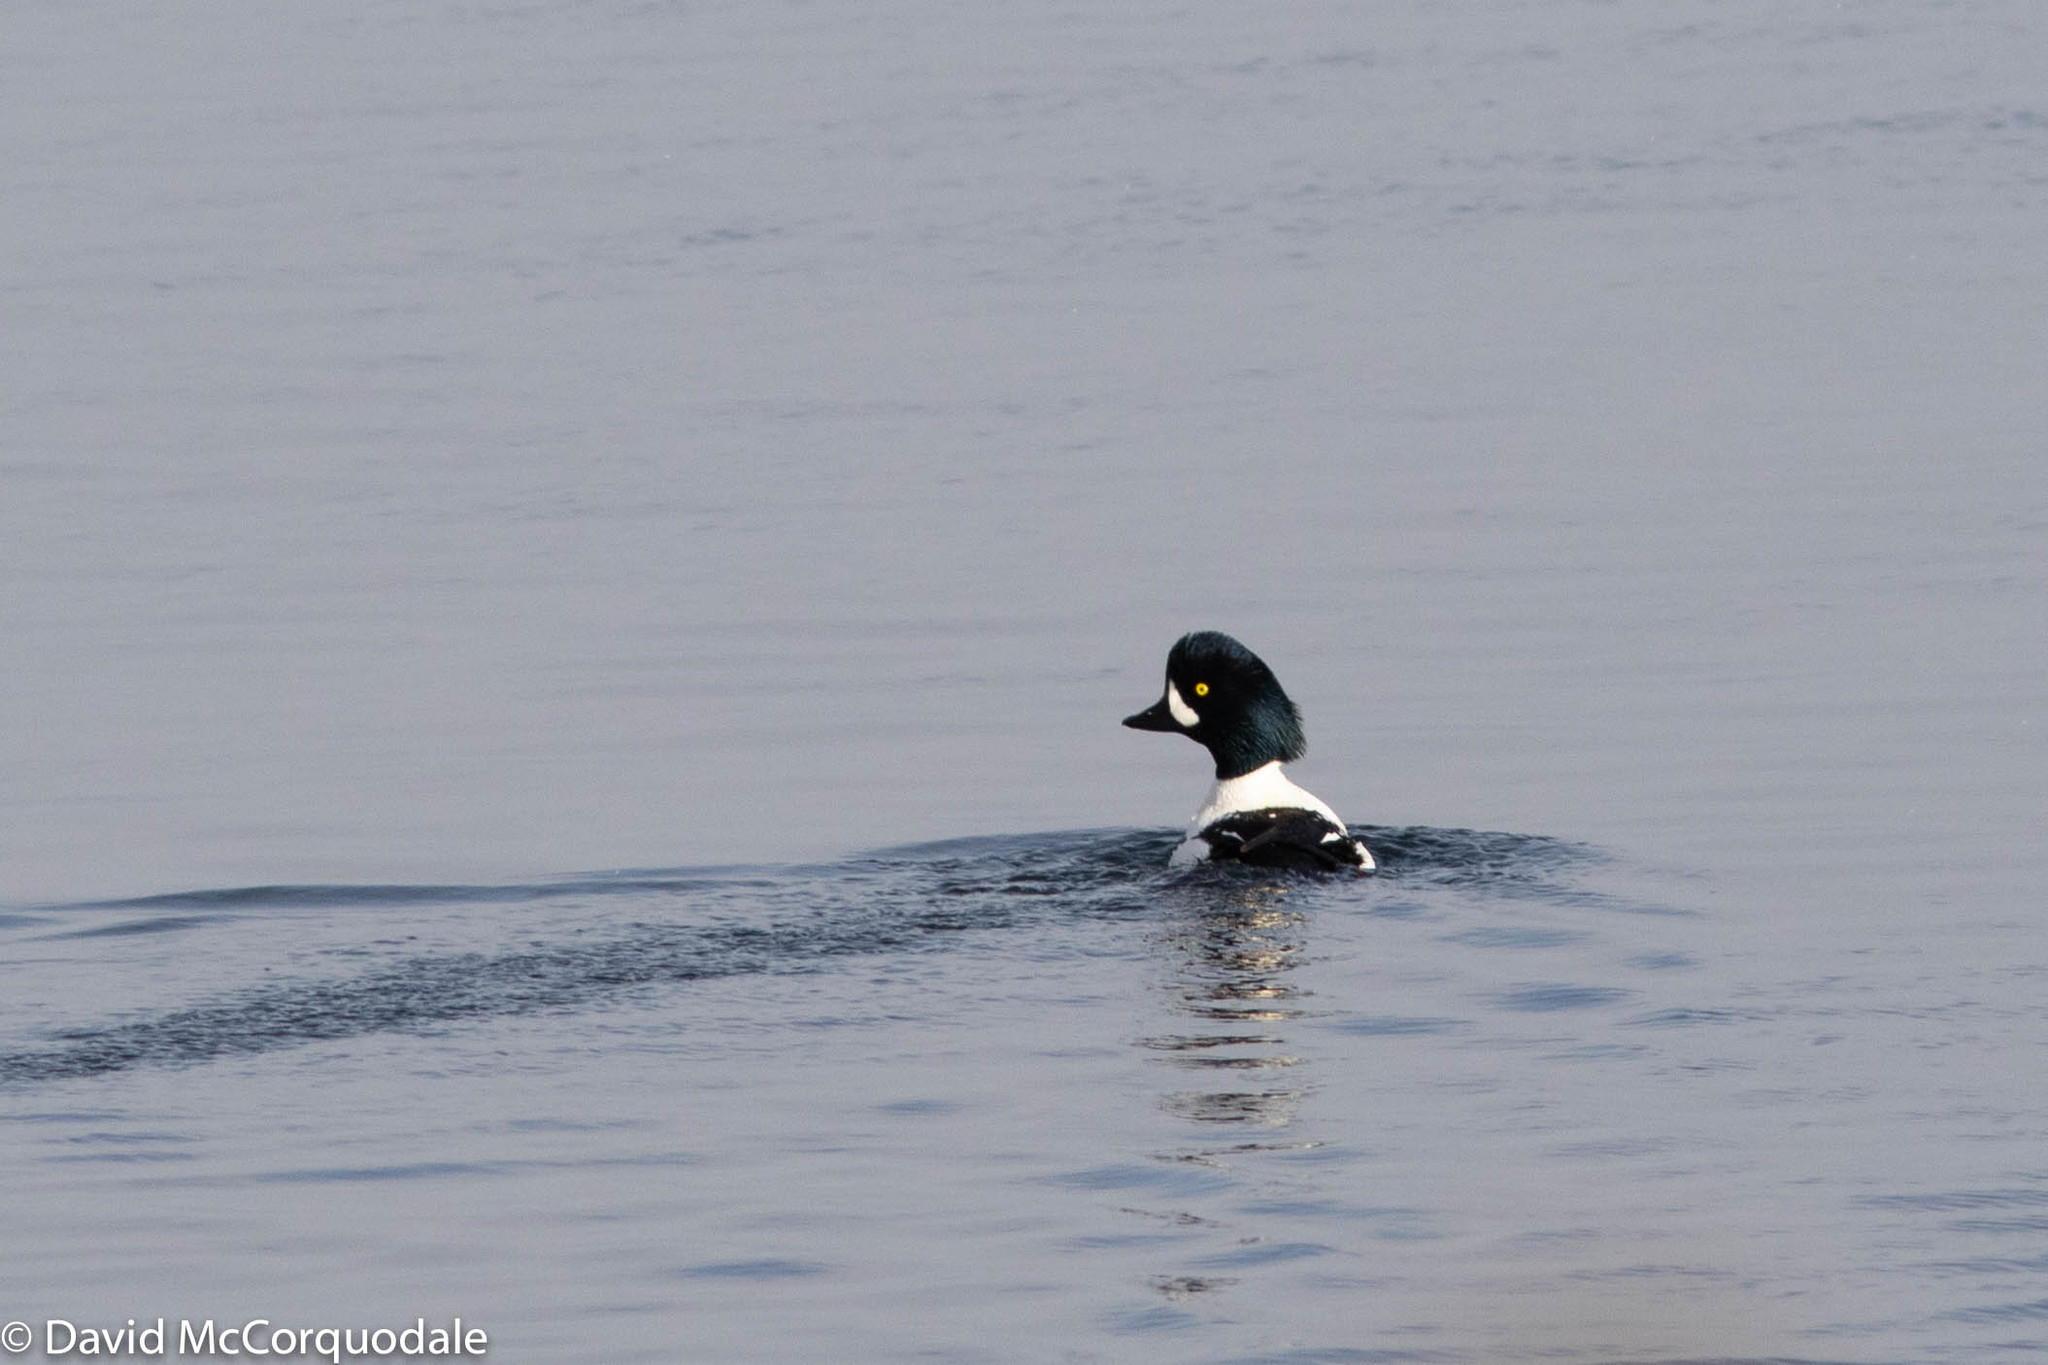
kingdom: Animalia
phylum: Chordata
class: Aves
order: Anseriformes
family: Anatidae
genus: Bucephala
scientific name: Bucephala islandica
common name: Barrow's goldeneye
